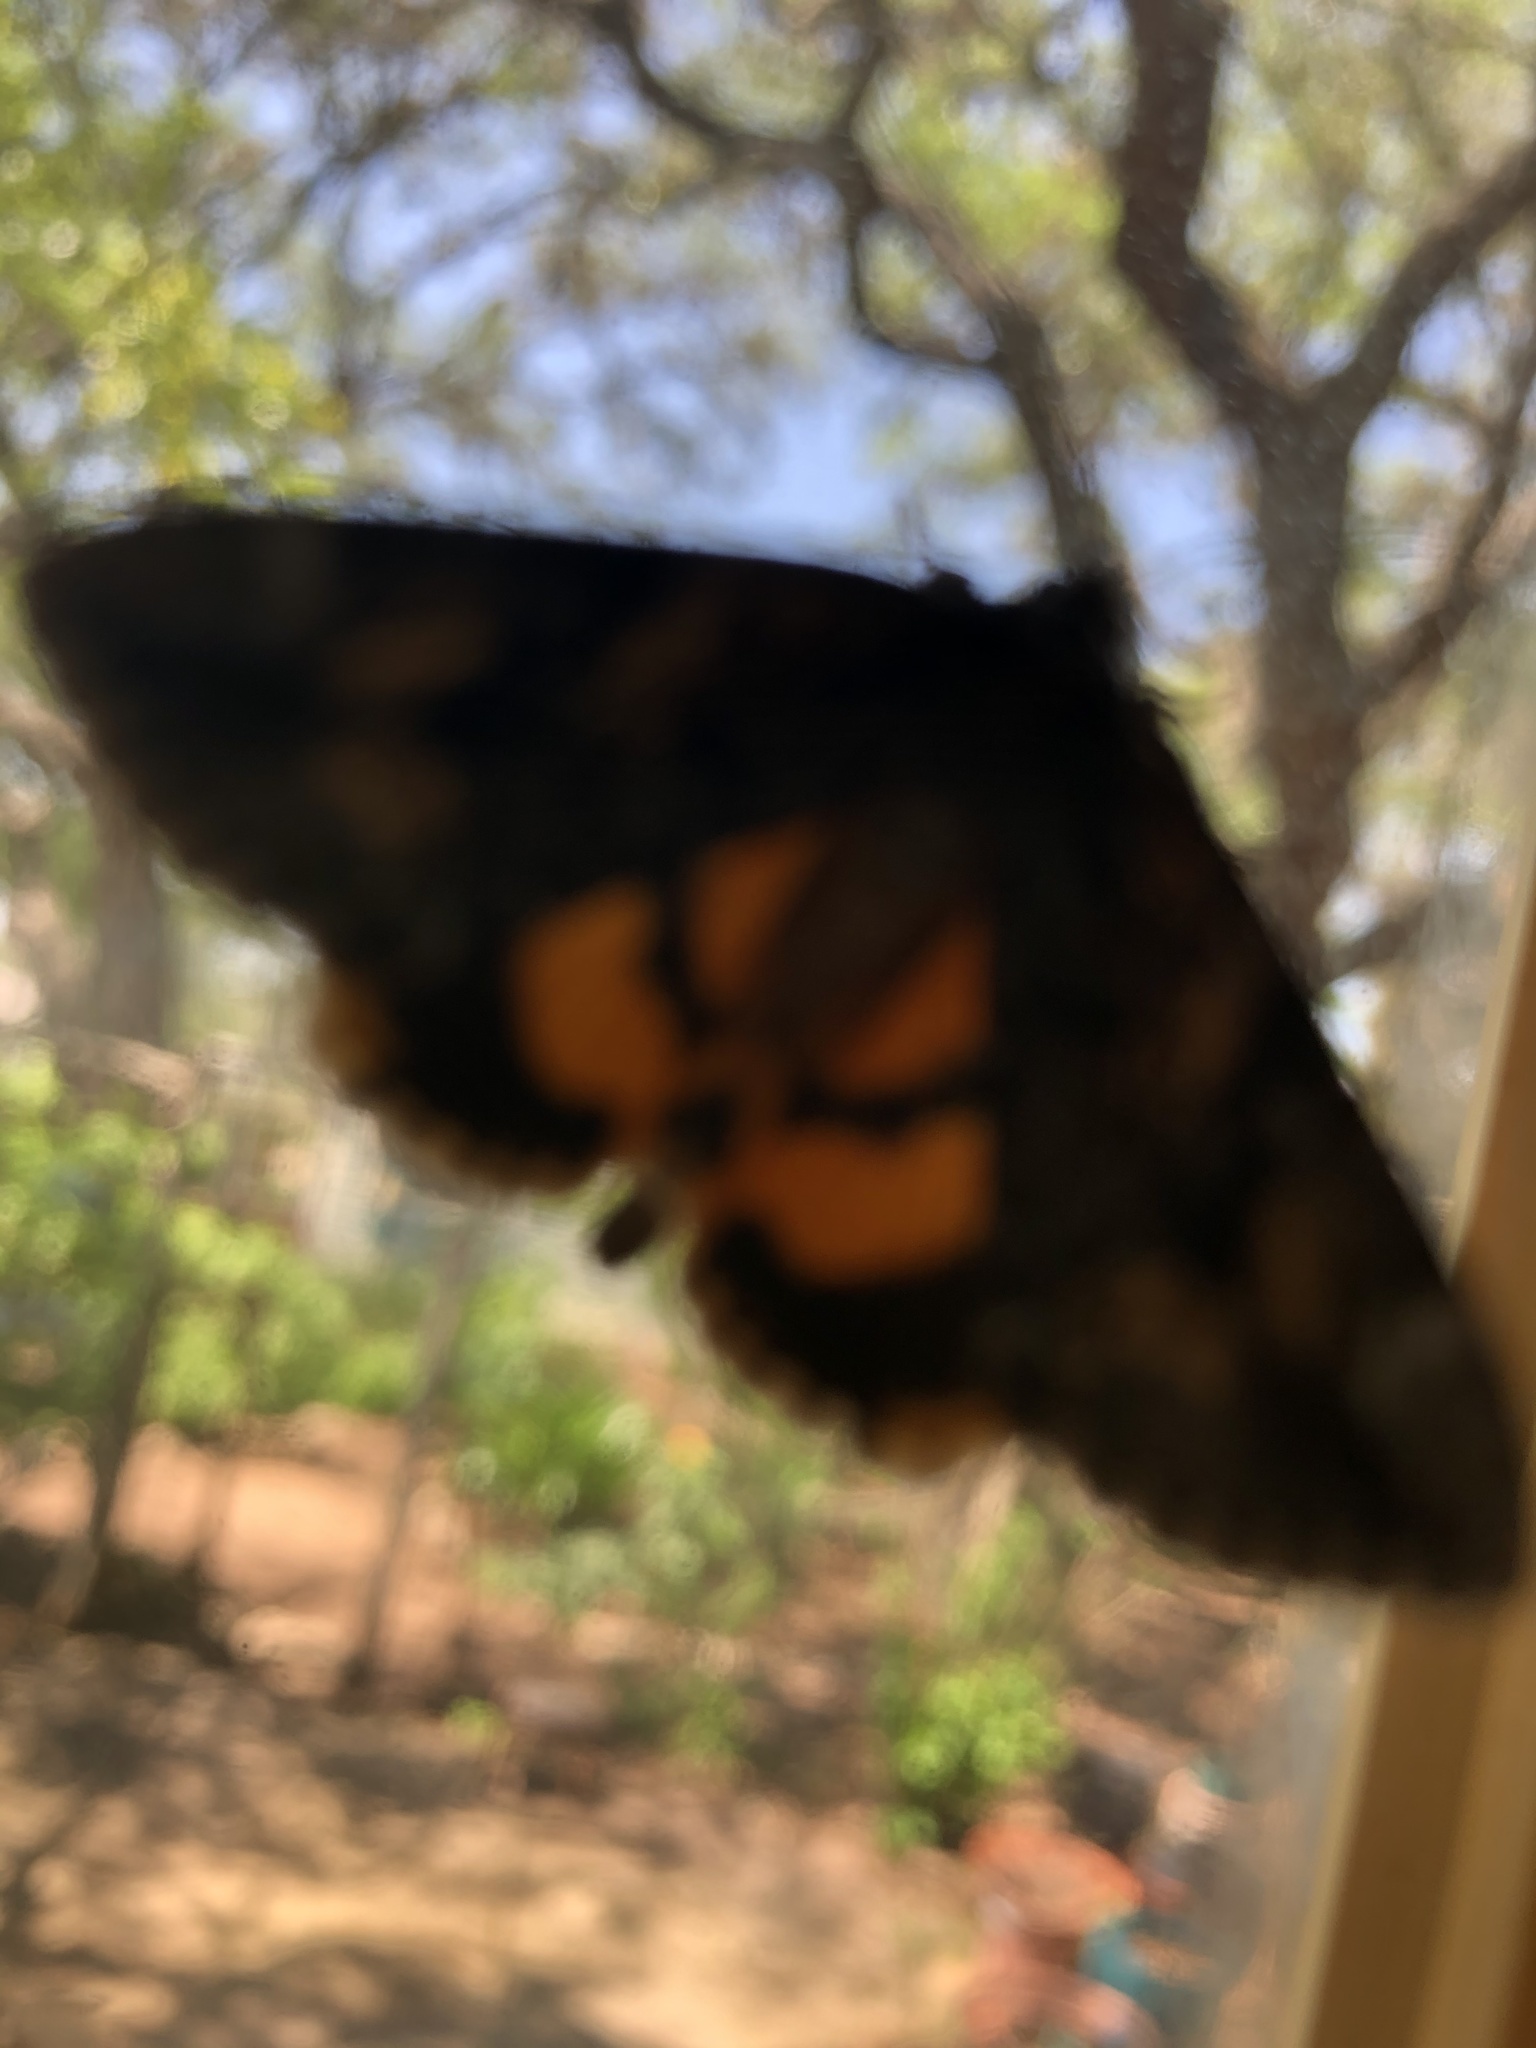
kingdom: Animalia
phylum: Arthropoda
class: Insecta
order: Lepidoptera
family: Erebidae
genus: Catocala
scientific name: Catocala micronympha
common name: Little nymph underwing
